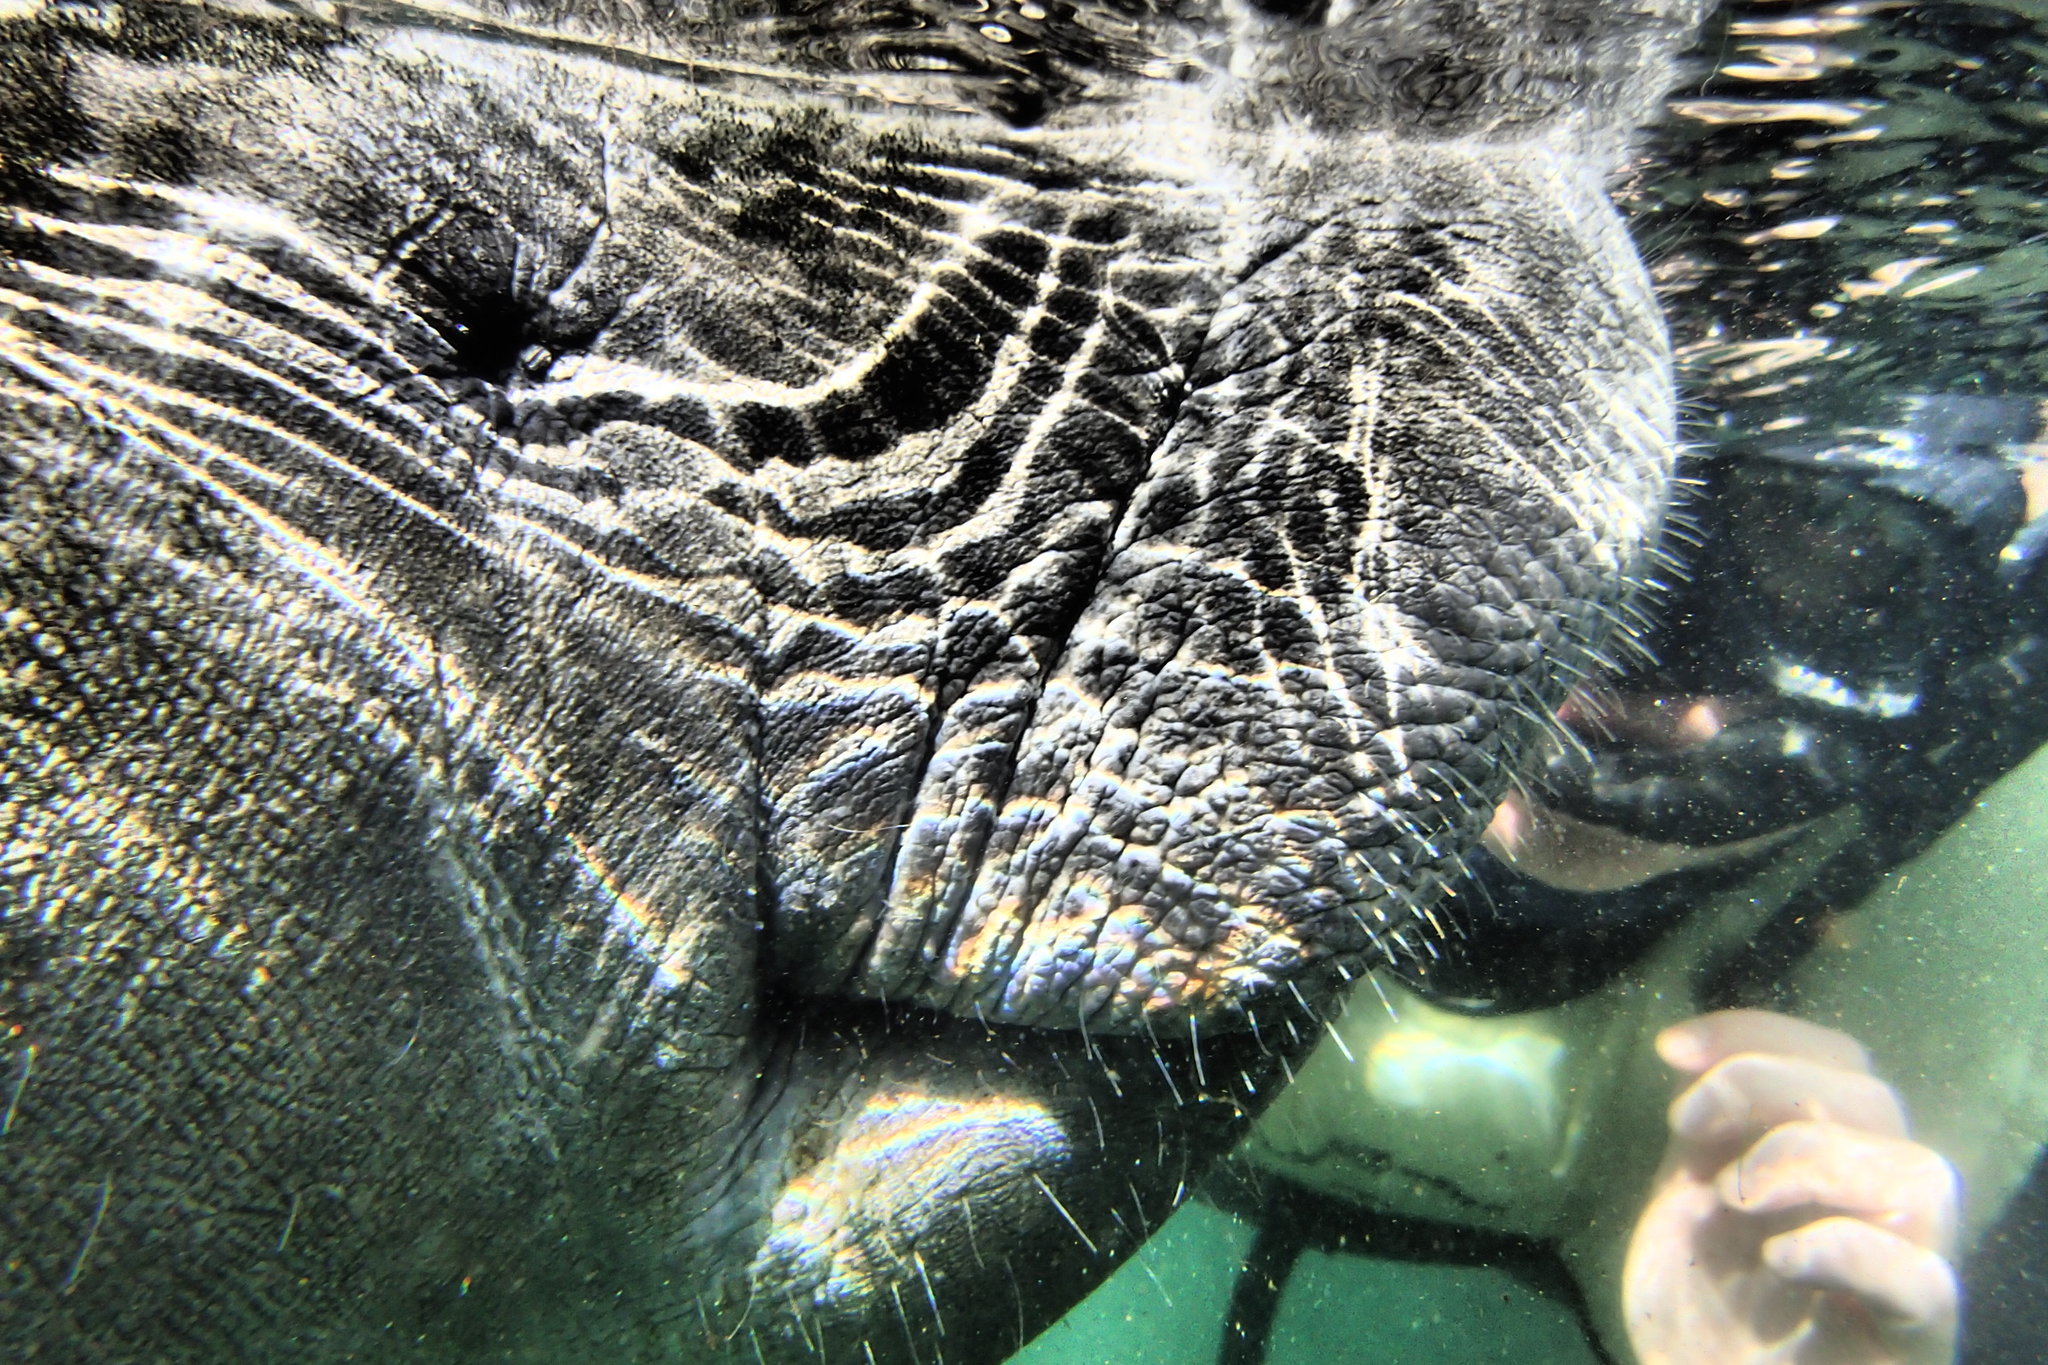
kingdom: Animalia
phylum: Chordata
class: Mammalia
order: Sirenia
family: Trichechidae
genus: Trichechus
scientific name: Trichechus manatus
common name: West indian manatee
